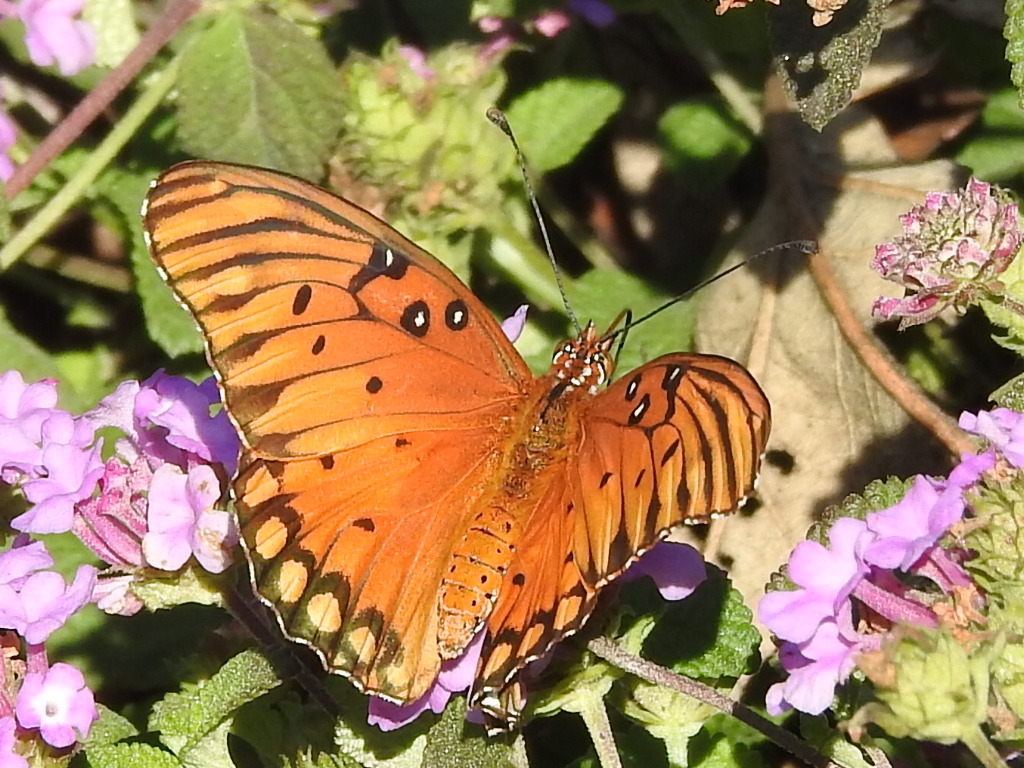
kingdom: Animalia
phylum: Arthropoda
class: Insecta
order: Lepidoptera
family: Nymphalidae
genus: Dione
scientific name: Dione vanillae
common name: Gulf fritillary
